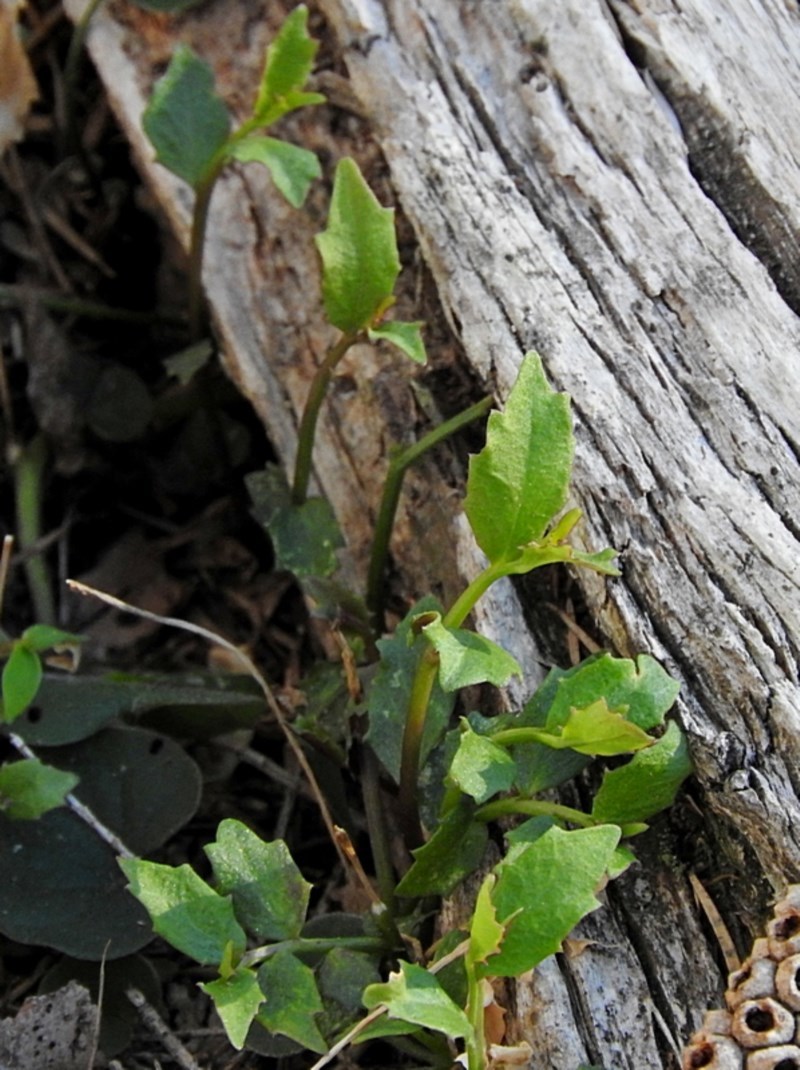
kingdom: Plantae
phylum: Tracheophyta
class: Magnoliopsida
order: Asterales
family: Campanulaceae
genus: Lobelia
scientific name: Lobelia purpurascens
